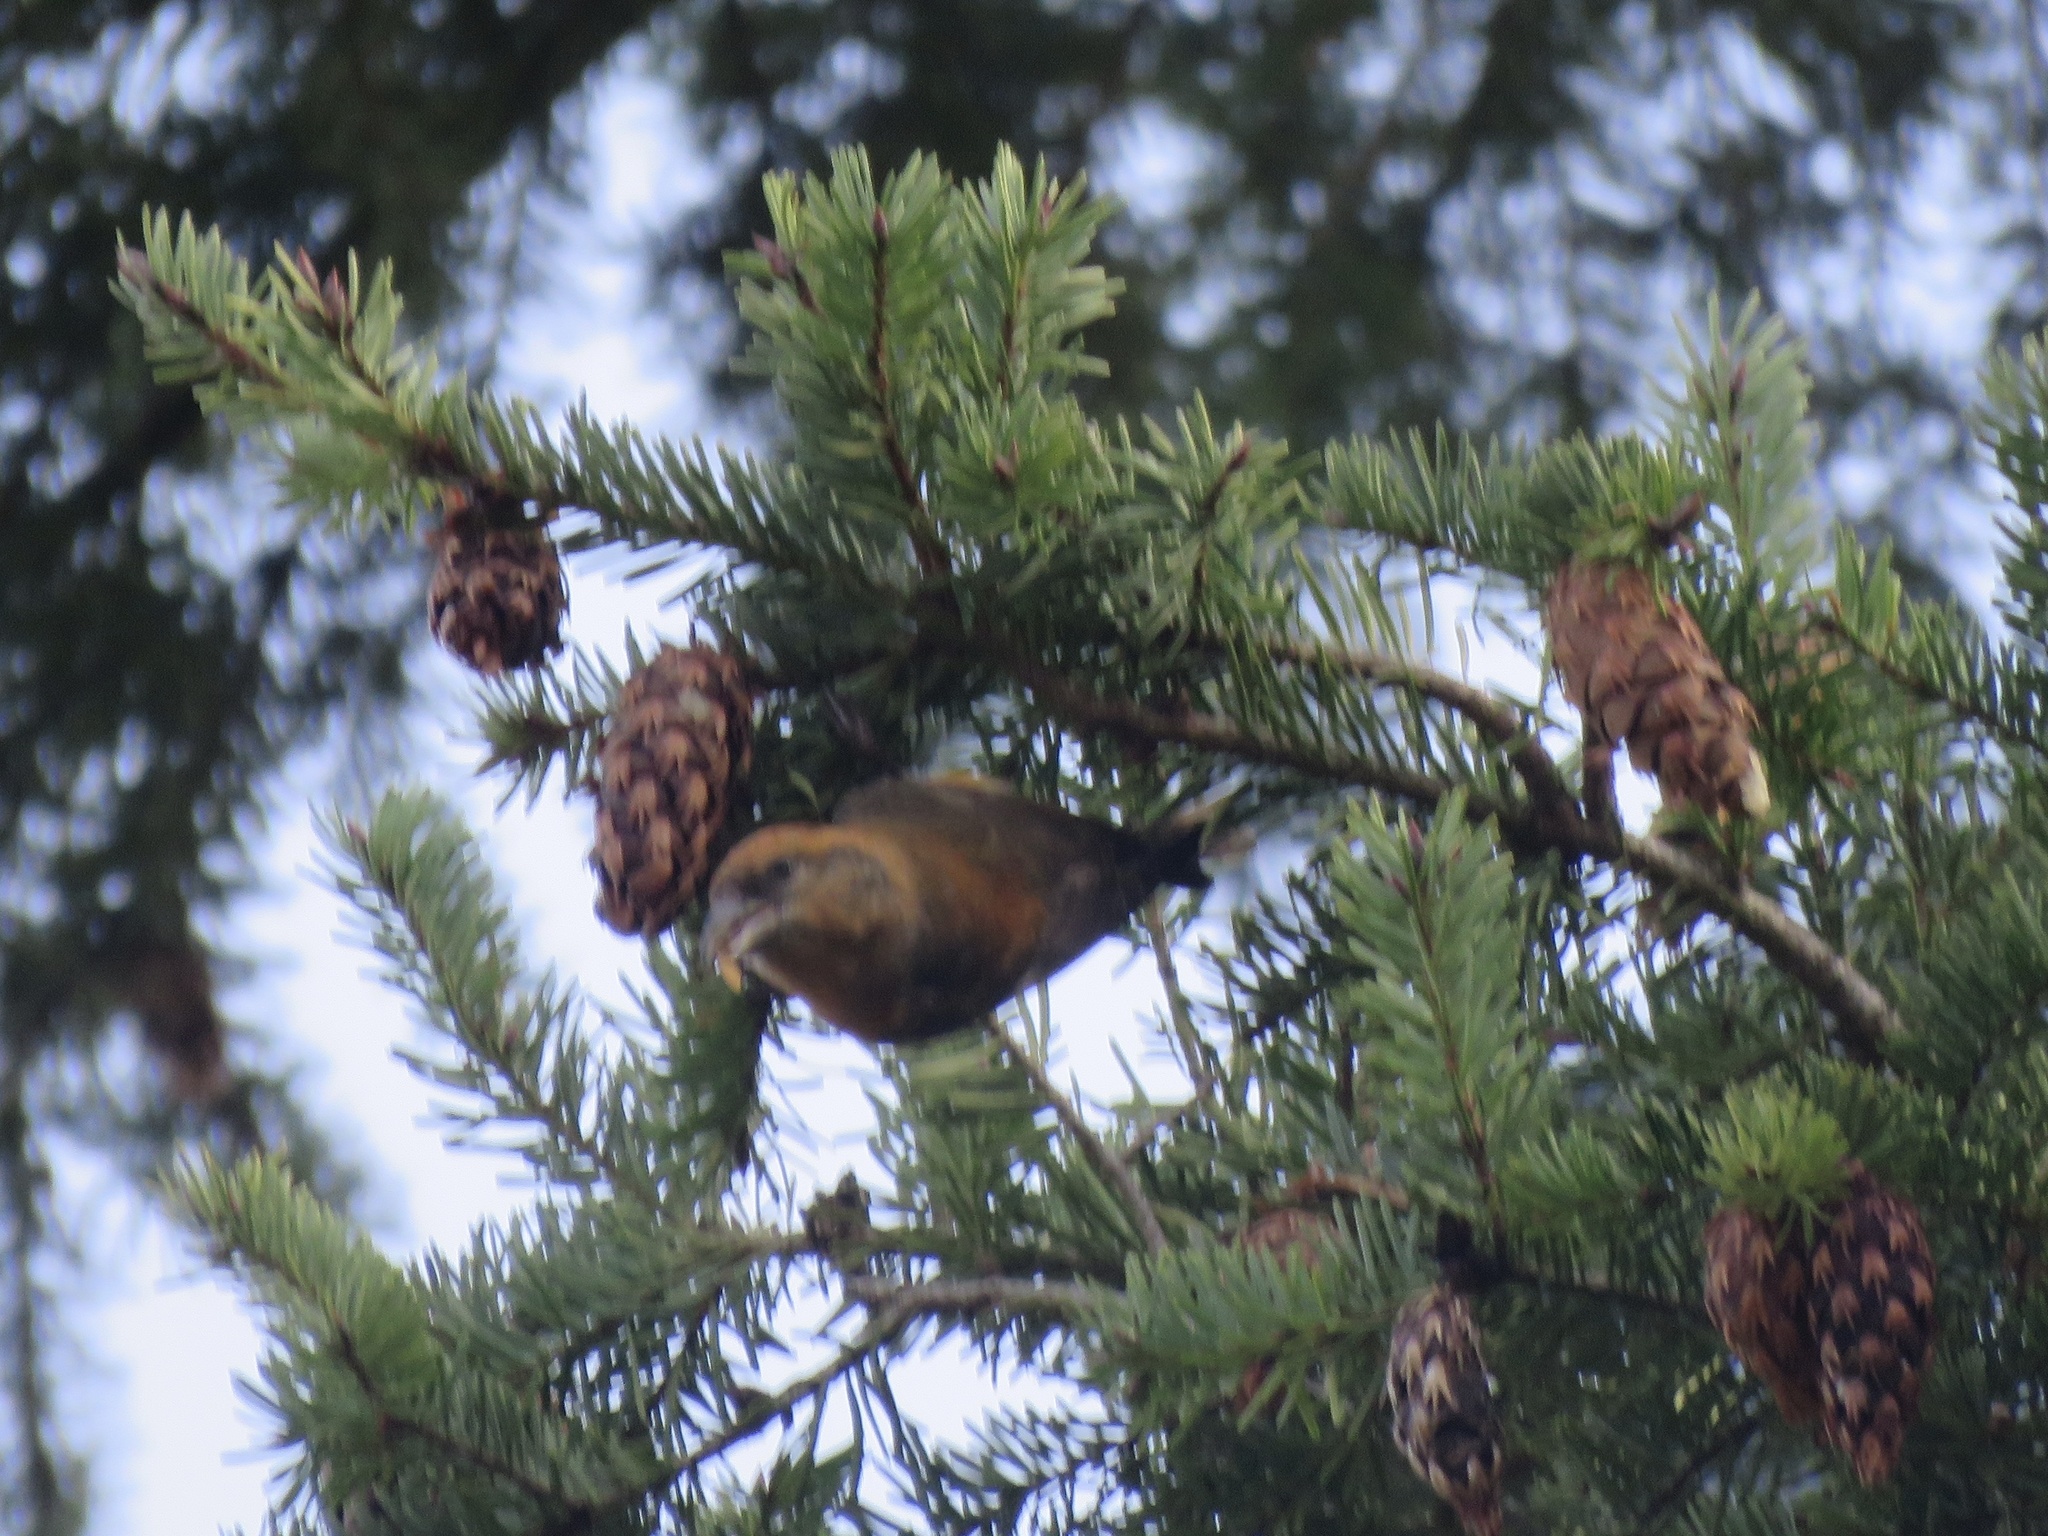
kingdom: Animalia
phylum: Chordata
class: Aves
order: Passeriformes
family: Fringillidae
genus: Loxia
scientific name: Loxia curvirostra
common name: Red crossbill
